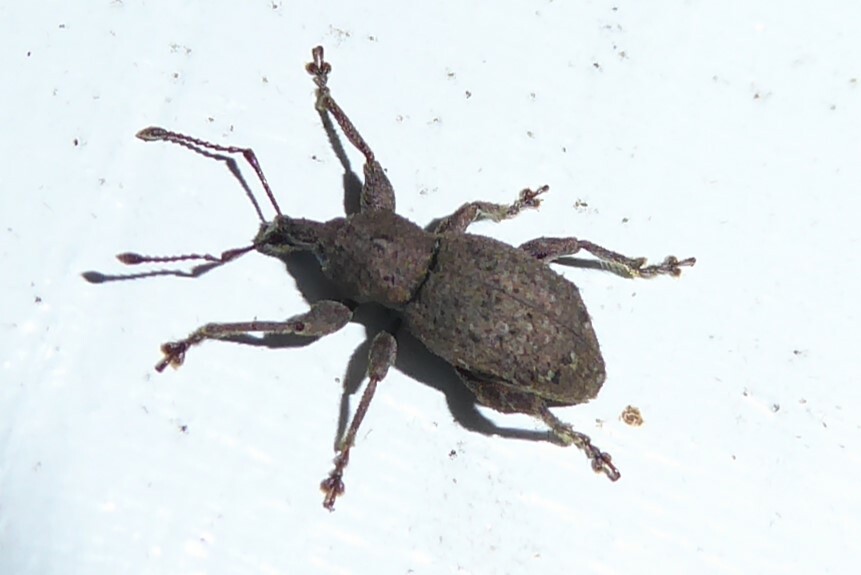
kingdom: Animalia
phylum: Arthropoda
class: Insecta
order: Coleoptera
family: Curculionidae
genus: Chalepistes
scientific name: Chalepistes rubidus
